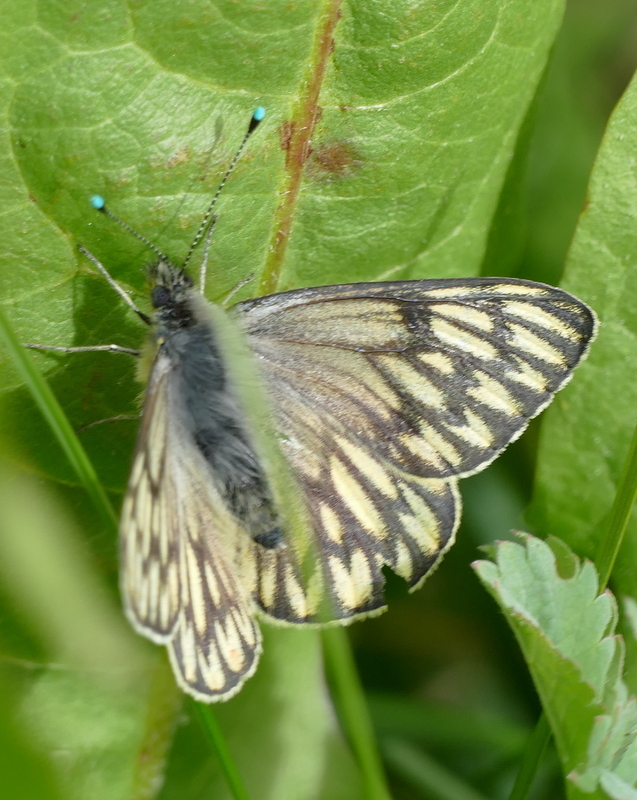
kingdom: Animalia
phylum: Arthropoda
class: Insecta
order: Lepidoptera
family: Pieridae
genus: Tatochila
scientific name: Tatochila theodice
